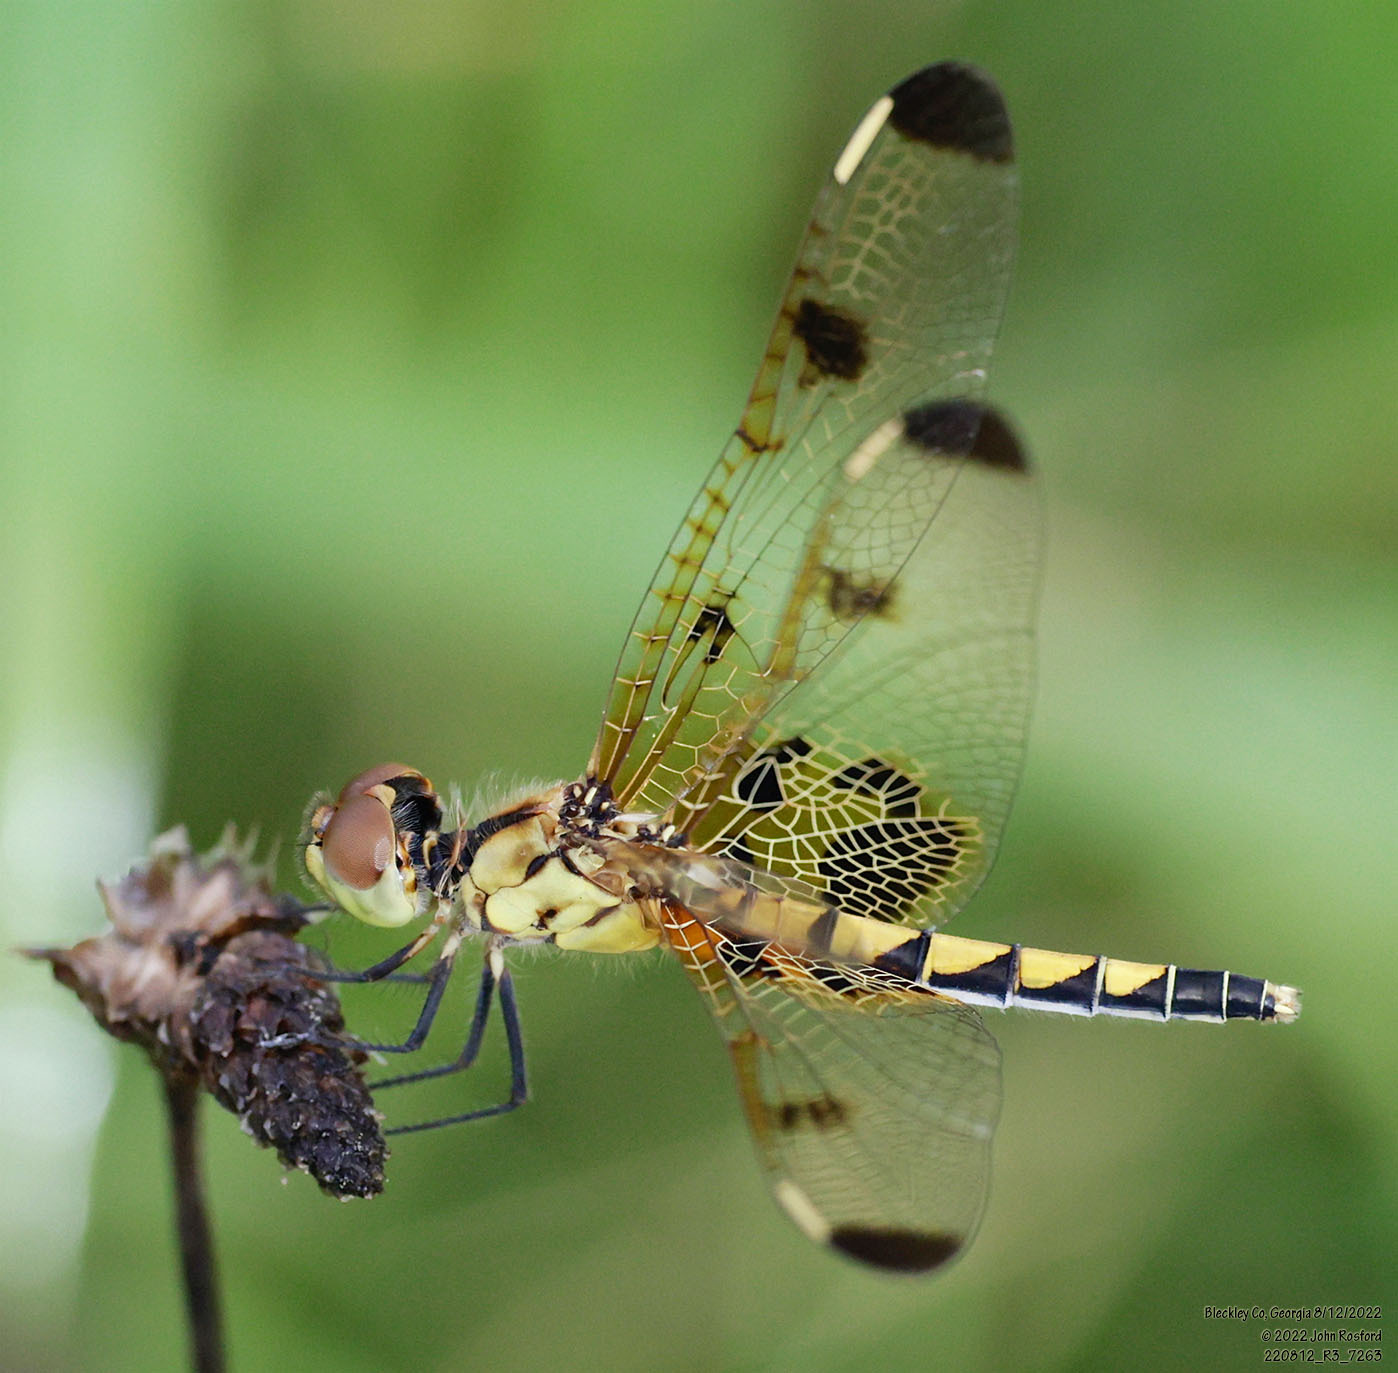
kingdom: Animalia
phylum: Arthropoda
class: Insecta
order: Odonata
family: Libellulidae
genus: Celithemis
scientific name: Celithemis elisa
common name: Calico pennant
